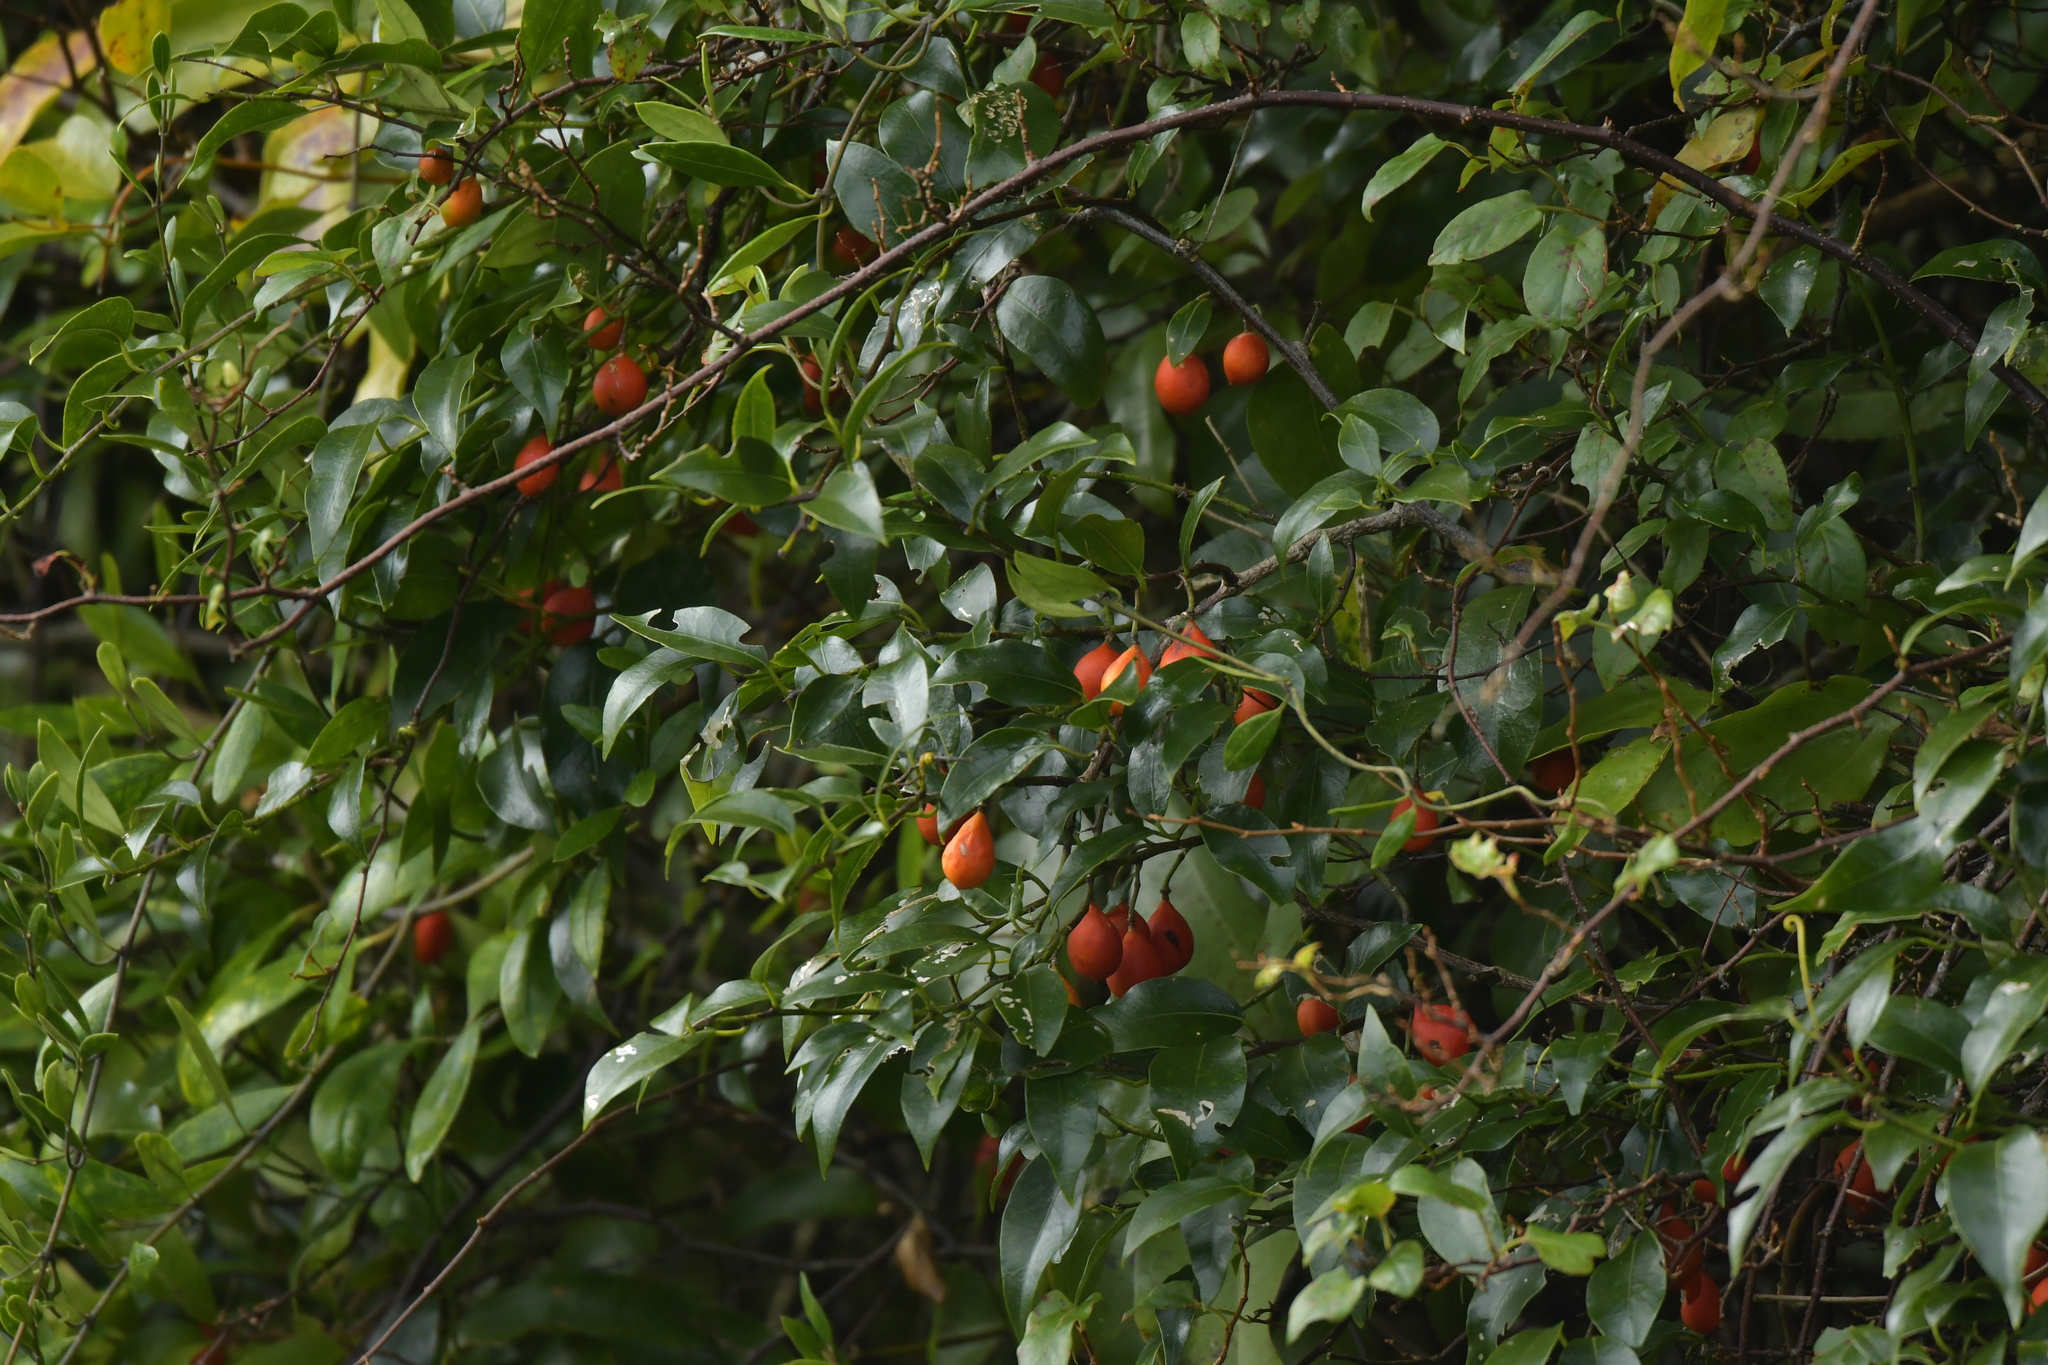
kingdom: Plantae
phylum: Tracheophyta
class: Magnoliopsida
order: Malpighiales
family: Passifloraceae
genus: Passiflora
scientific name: Passiflora tetrandra
